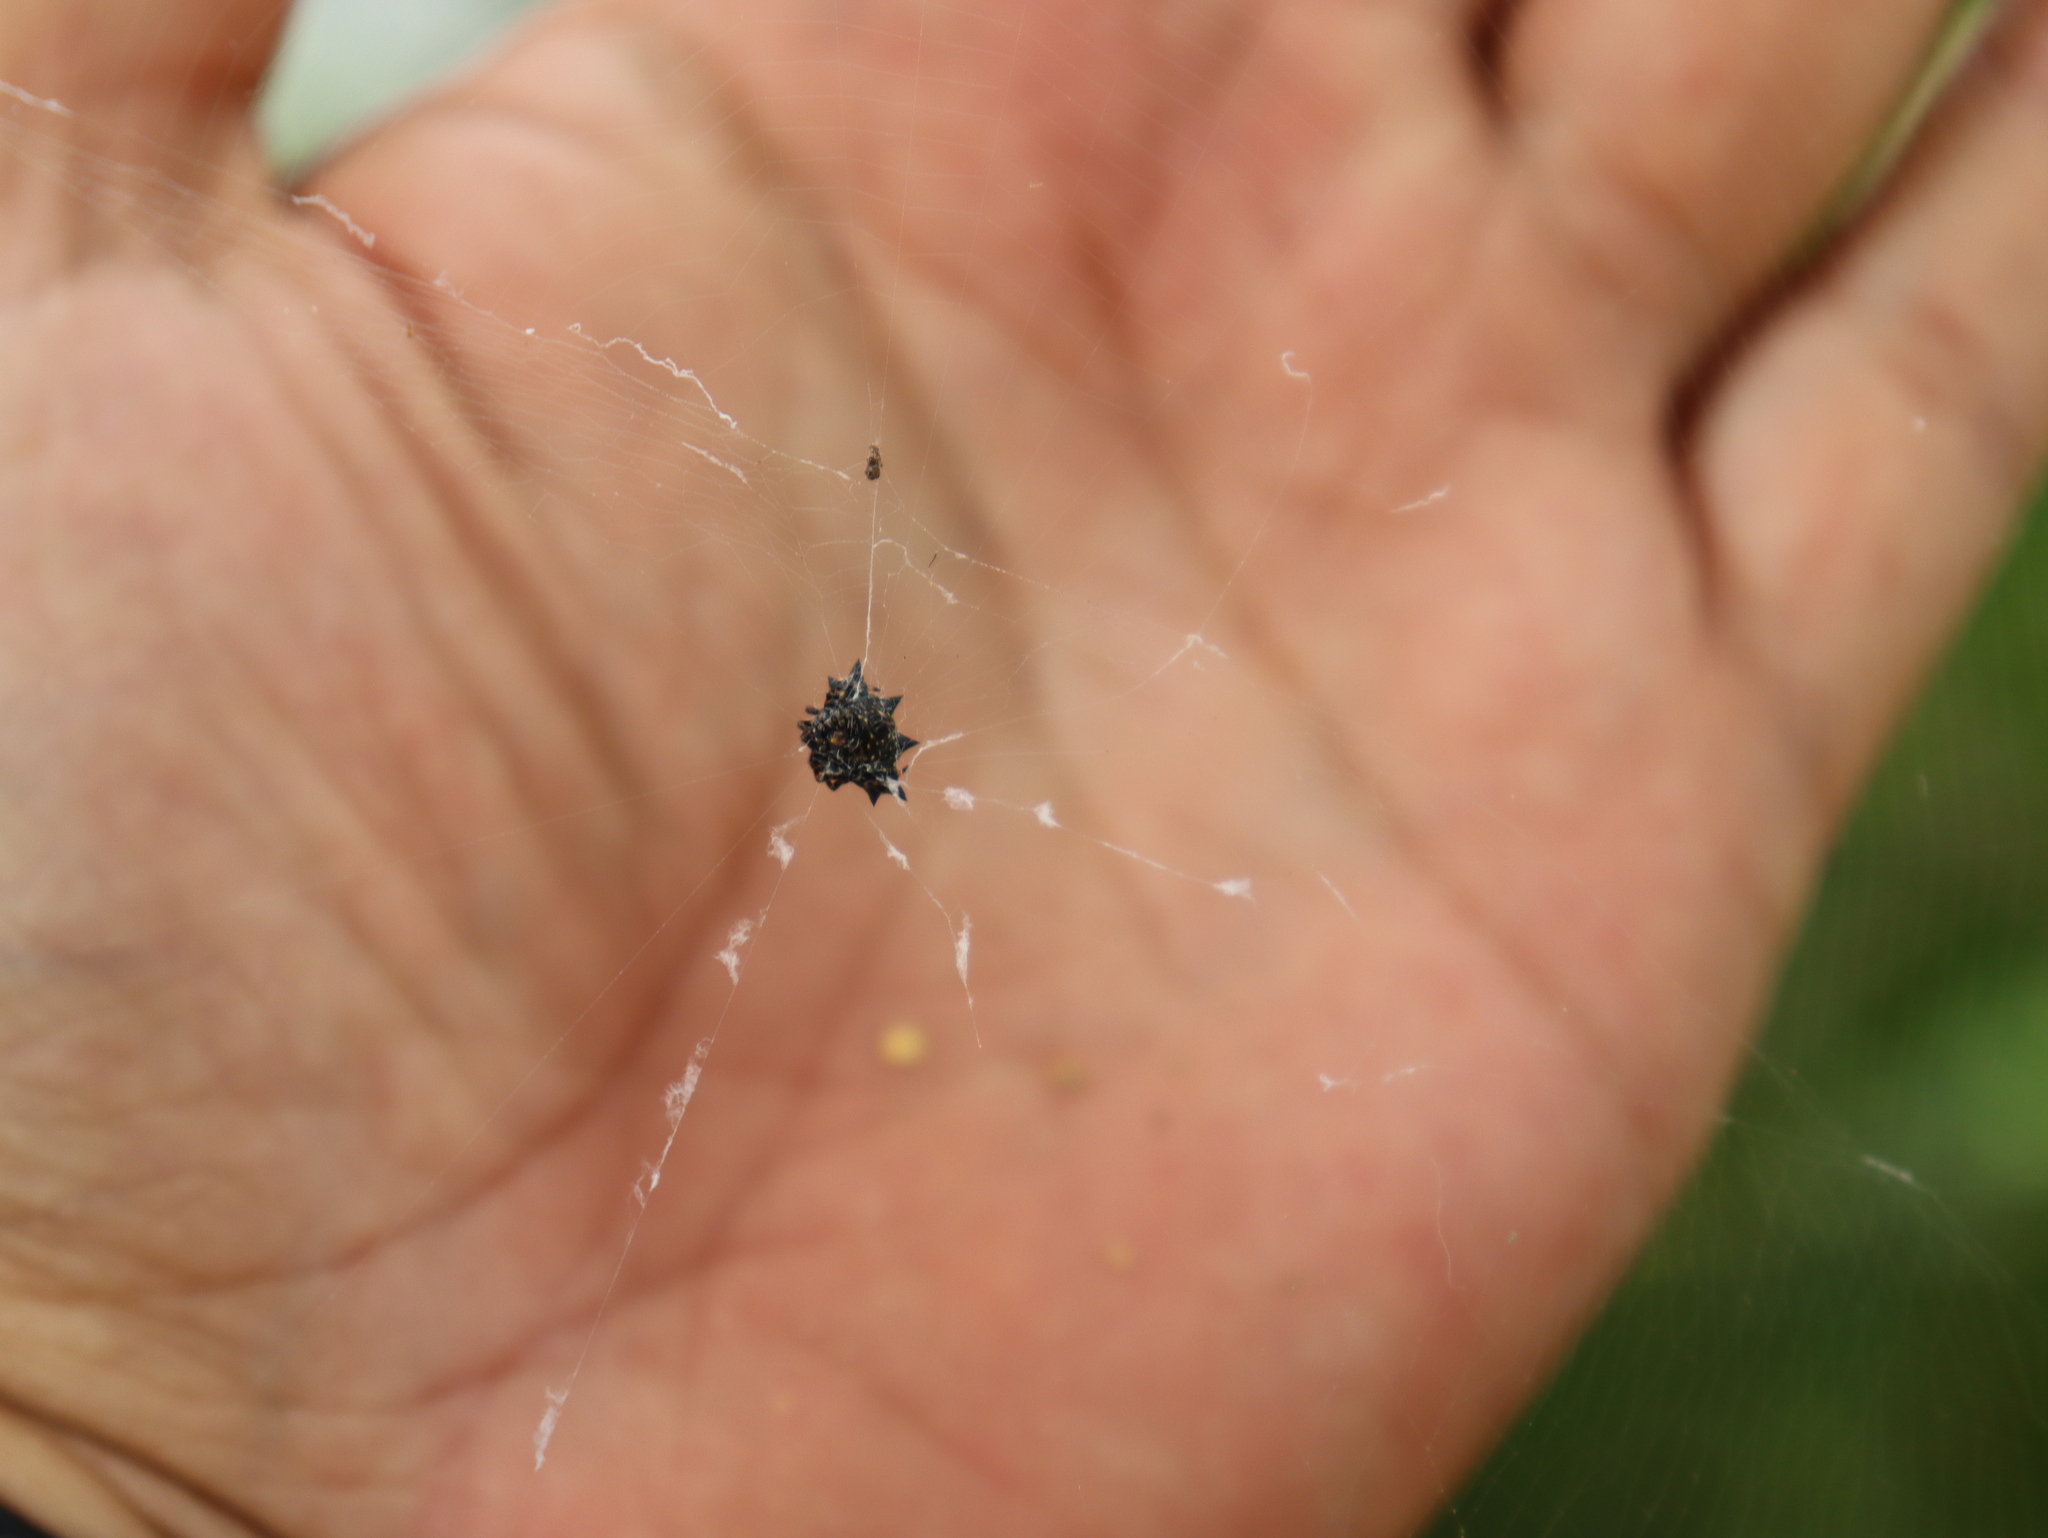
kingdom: Animalia
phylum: Arthropoda
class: Arachnida
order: Araneae
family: Araneidae
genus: Gasteracantha
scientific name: Gasteracantha cancriformis
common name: Orb weavers
